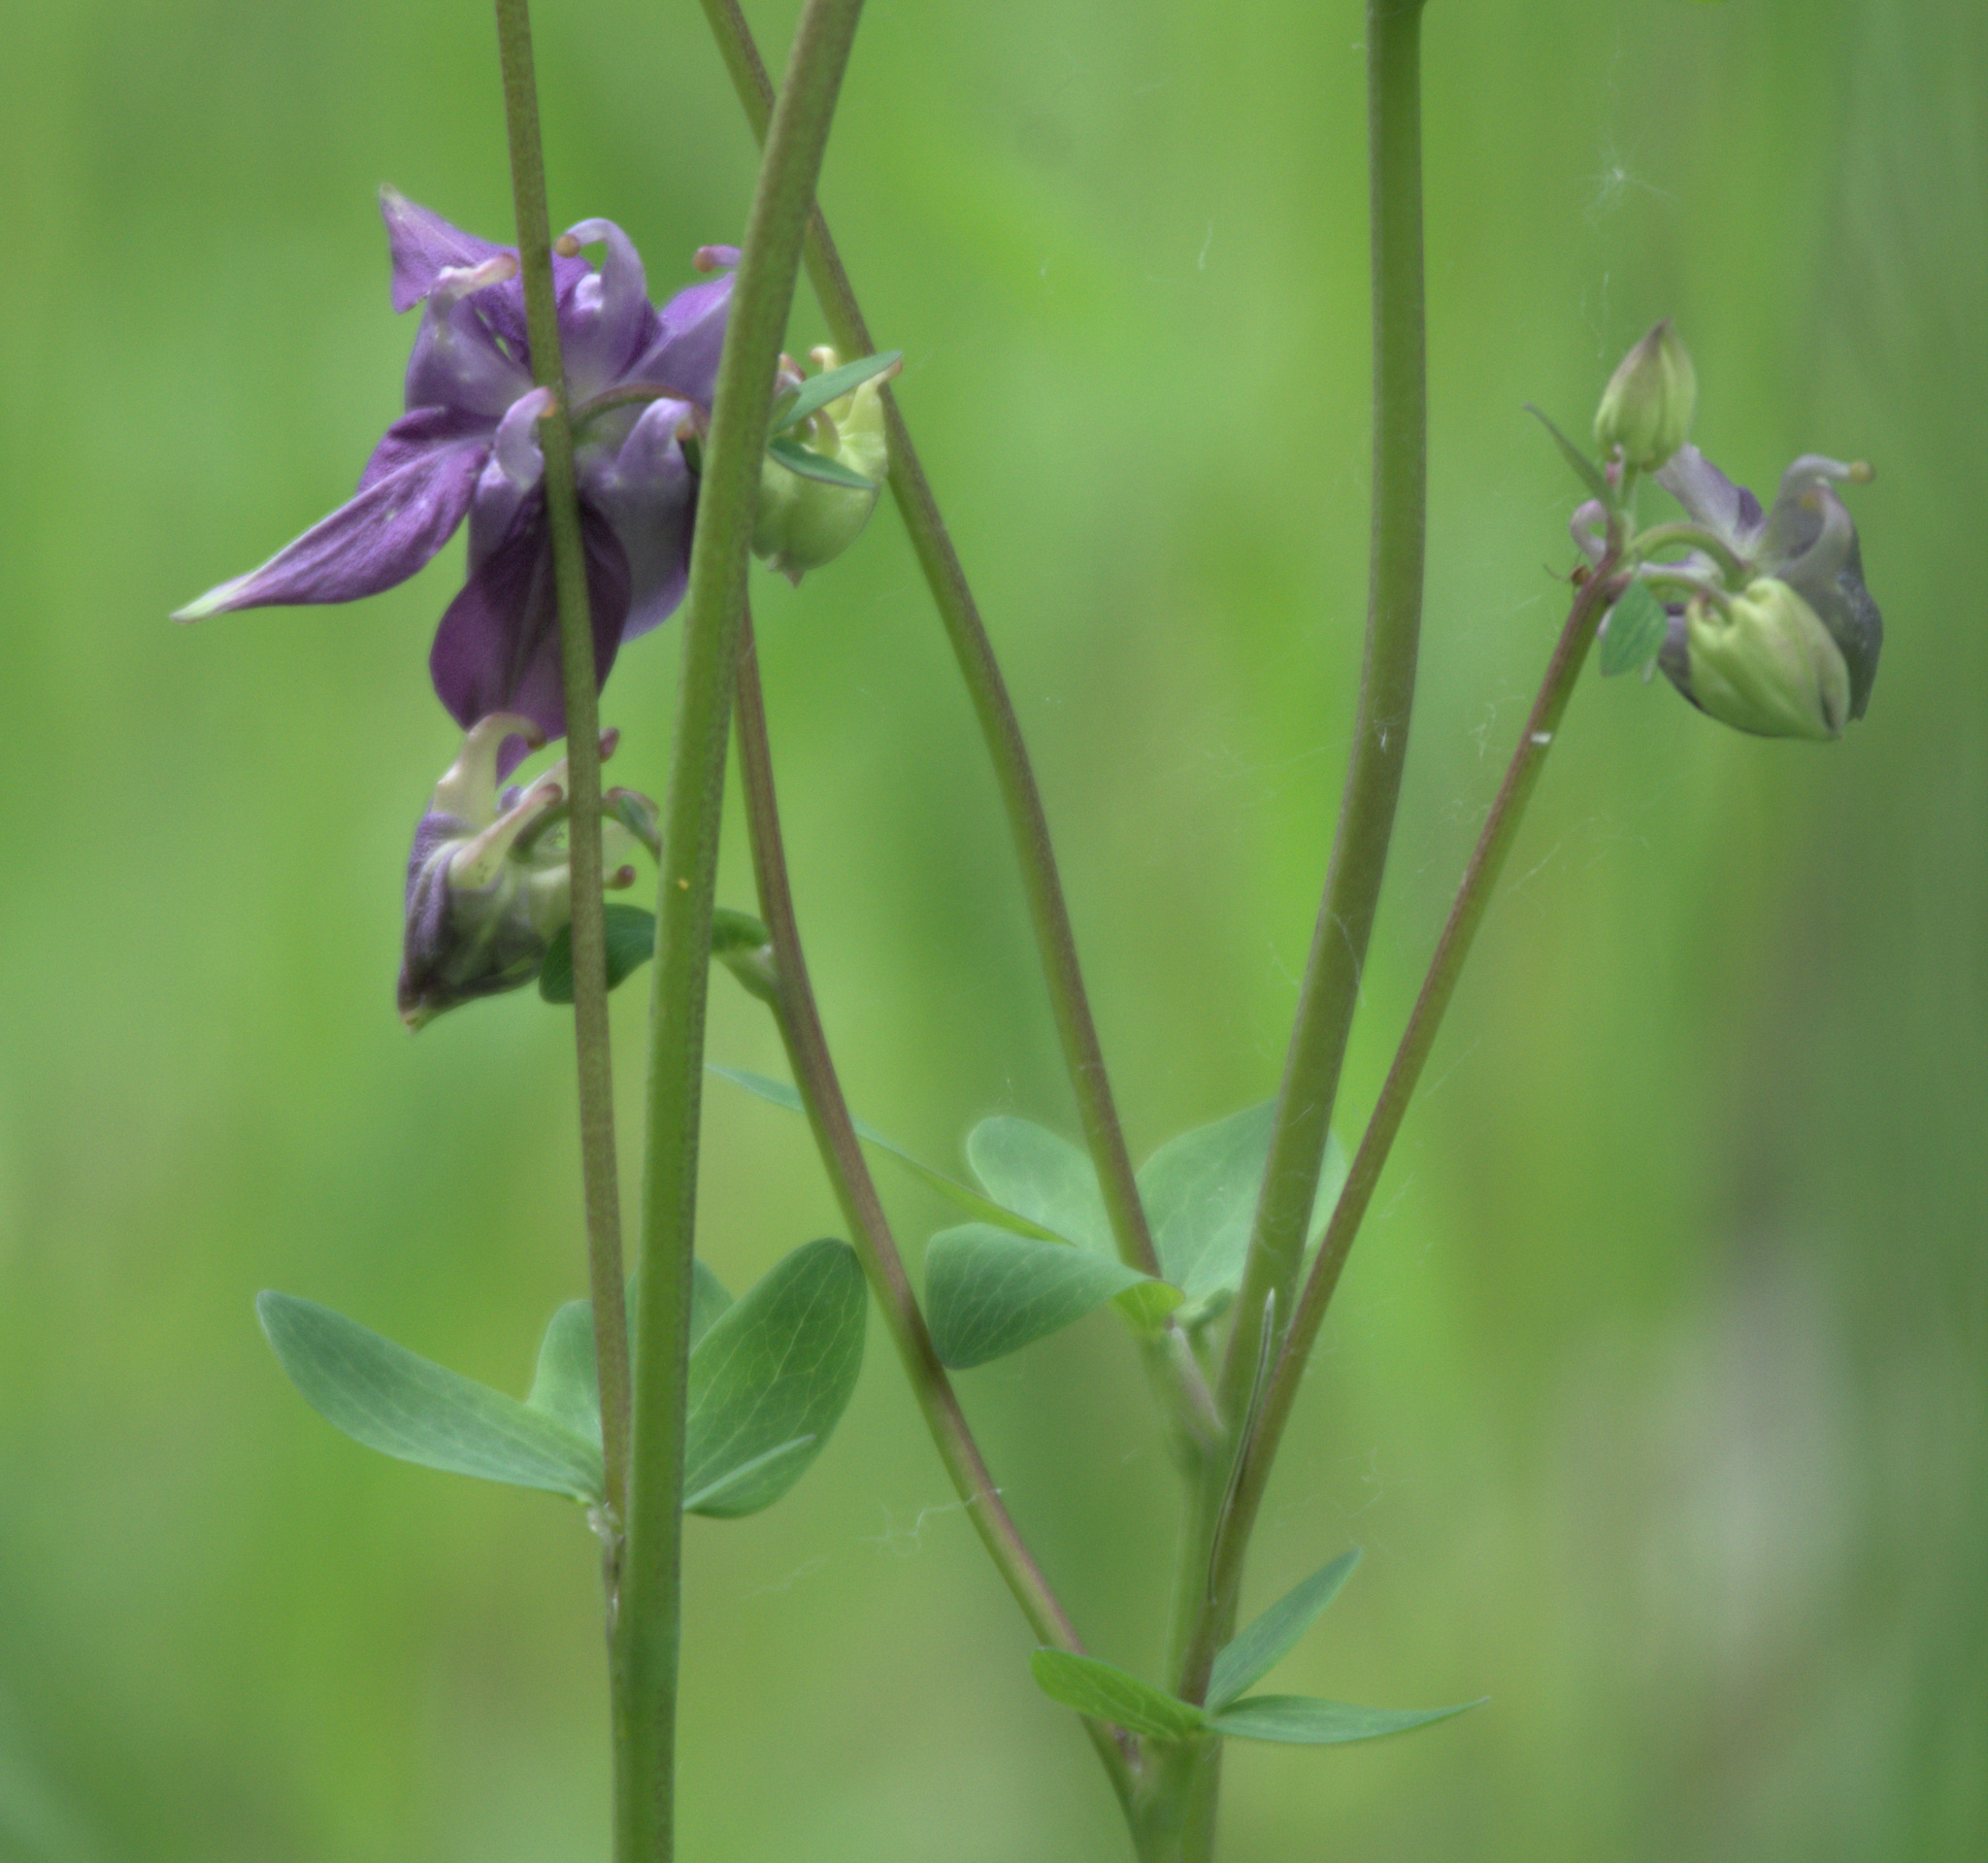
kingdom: Plantae
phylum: Tracheophyta
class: Magnoliopsida
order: Ranunculales
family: Ranunculaceae
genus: Aquilegia
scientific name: Aquilegia vulgaris
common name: Columbine
